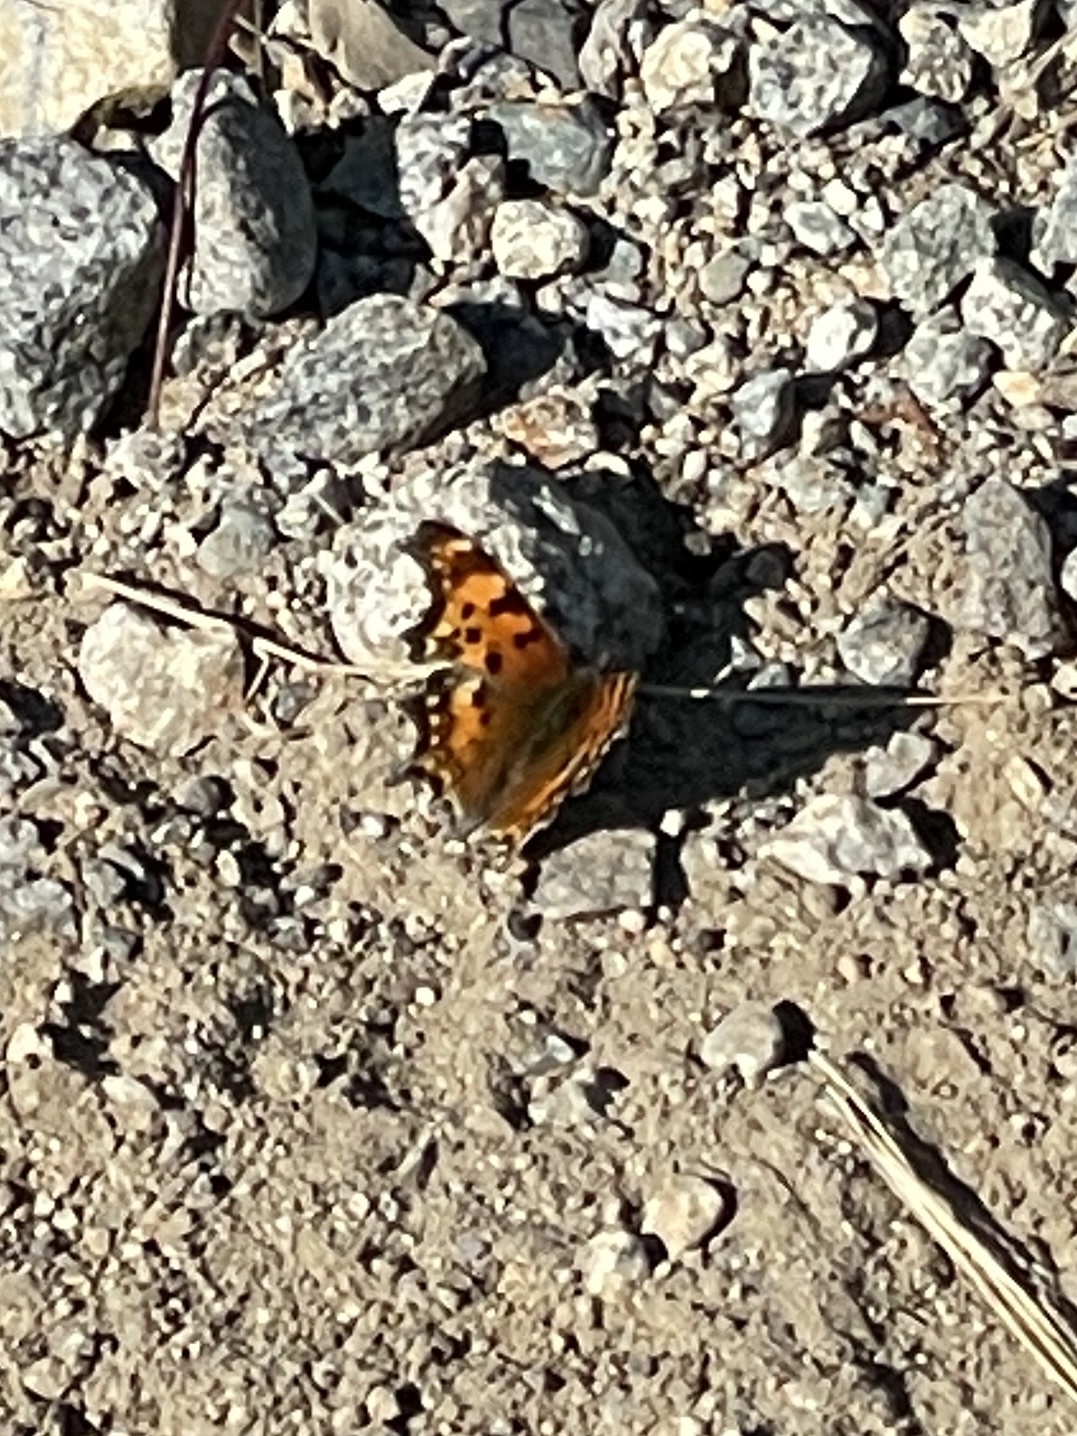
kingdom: Animalia
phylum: Arthropoda
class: Insecta
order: Lepidoptera
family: Nymphalidae
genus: Polygonia
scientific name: Polygonia faunus
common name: Green comma
